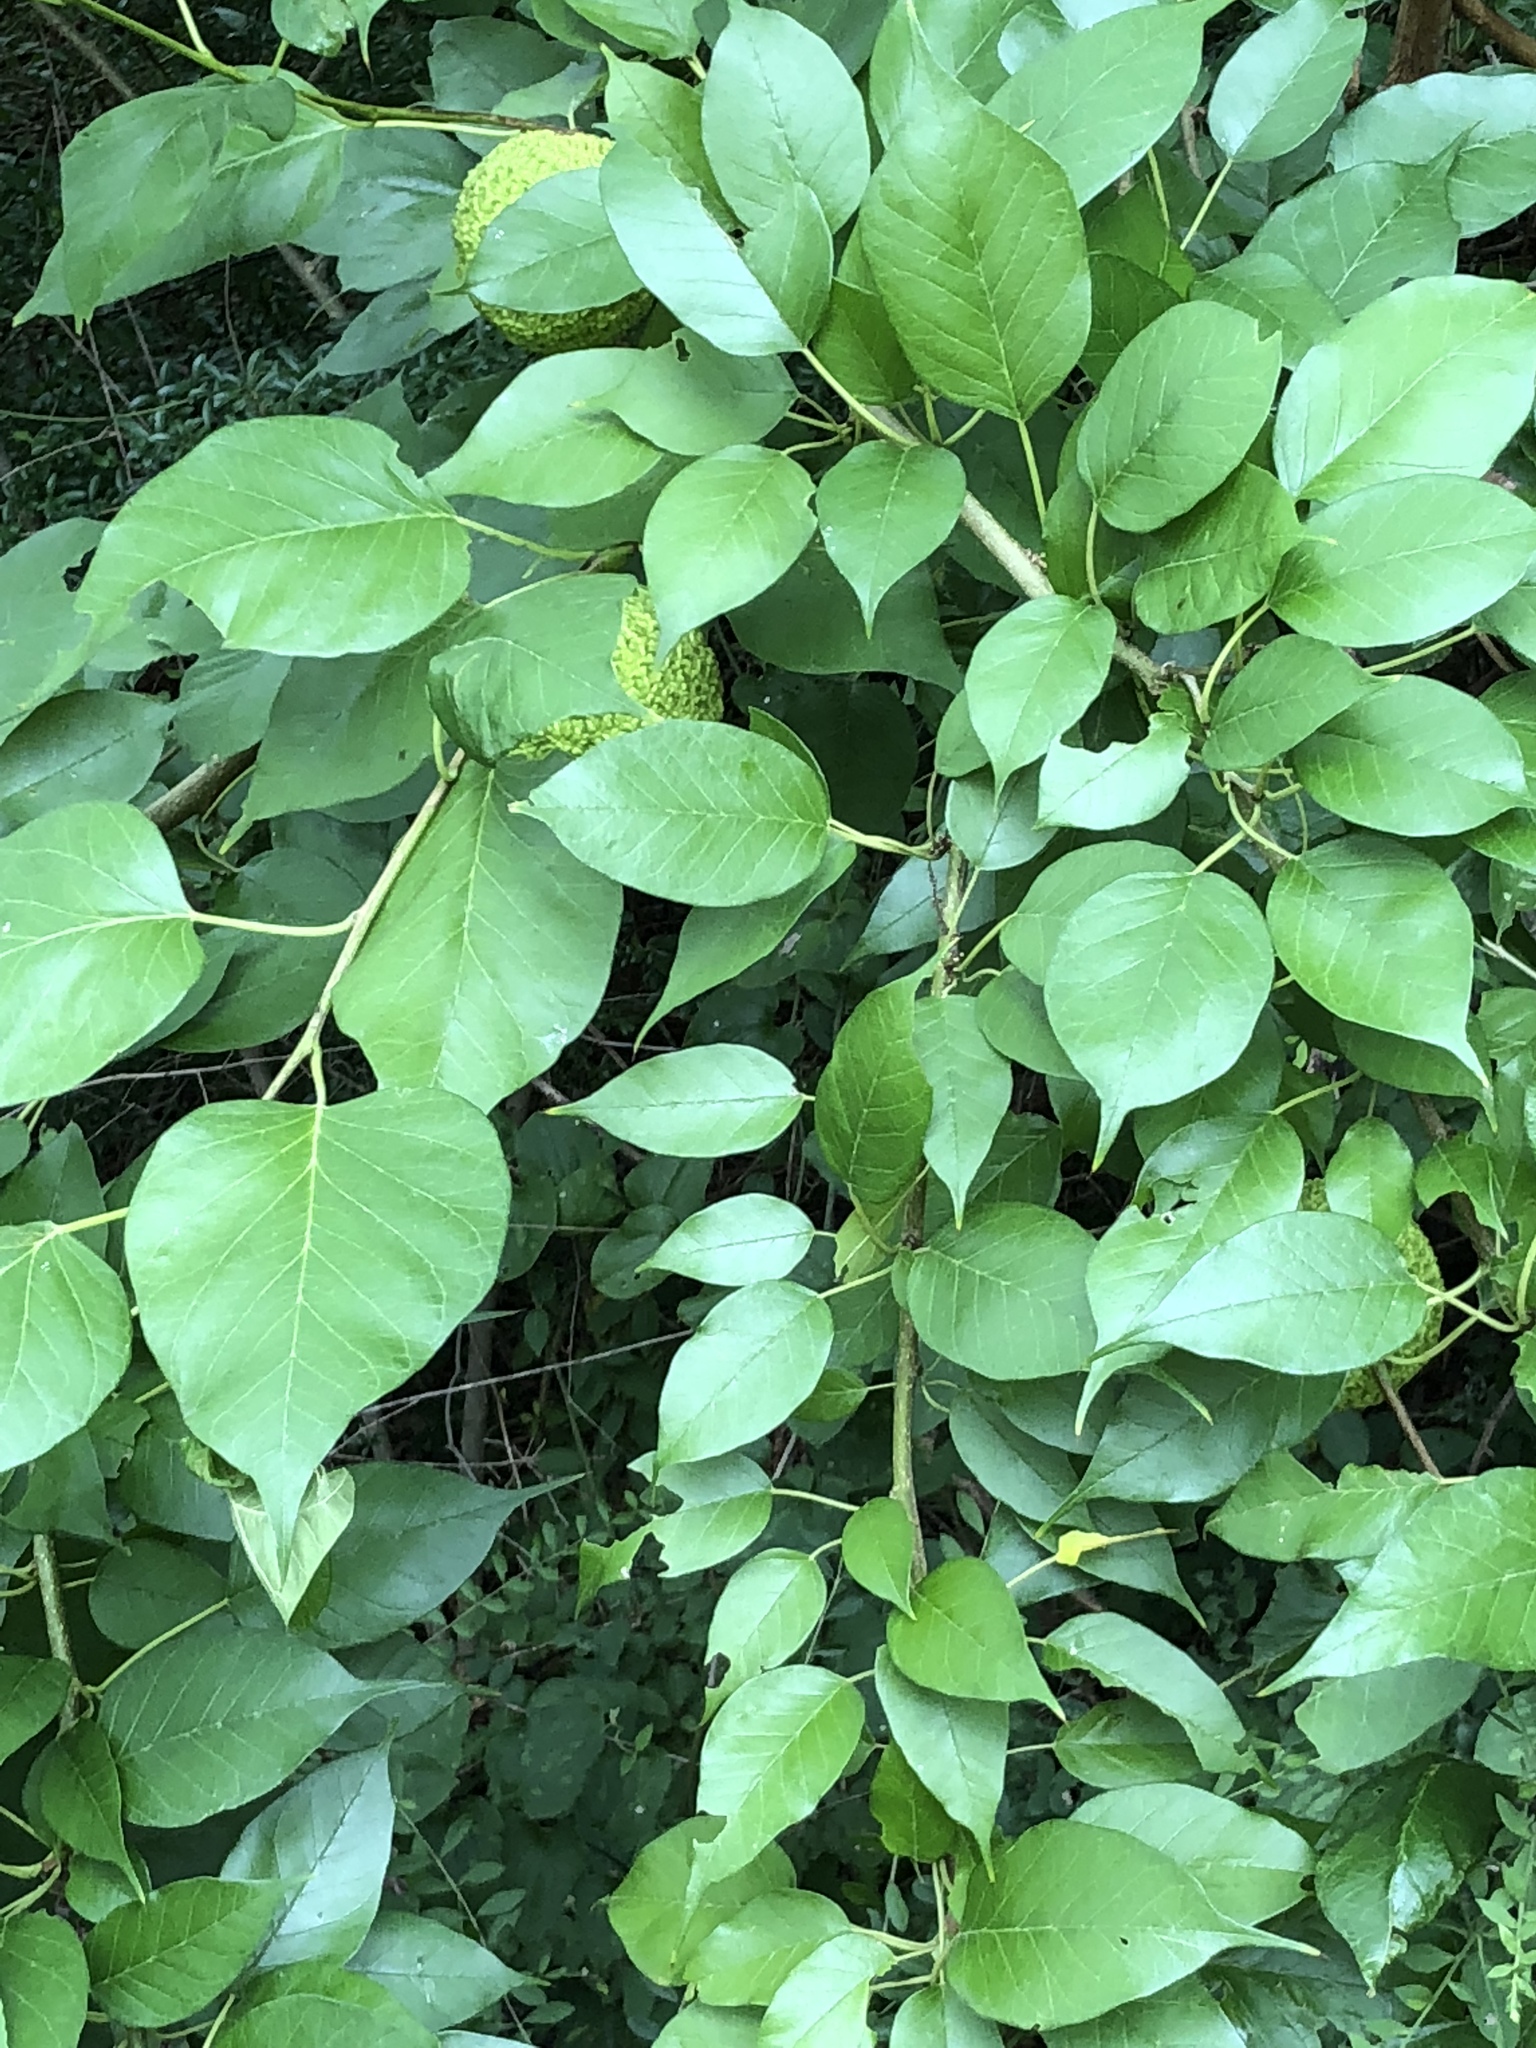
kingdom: Plantae
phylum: Tracheophyta
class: Magnoliopsida
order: Rosales
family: Moraceae
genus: Maclura
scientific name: Maclura pomifera
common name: Osage-orange
